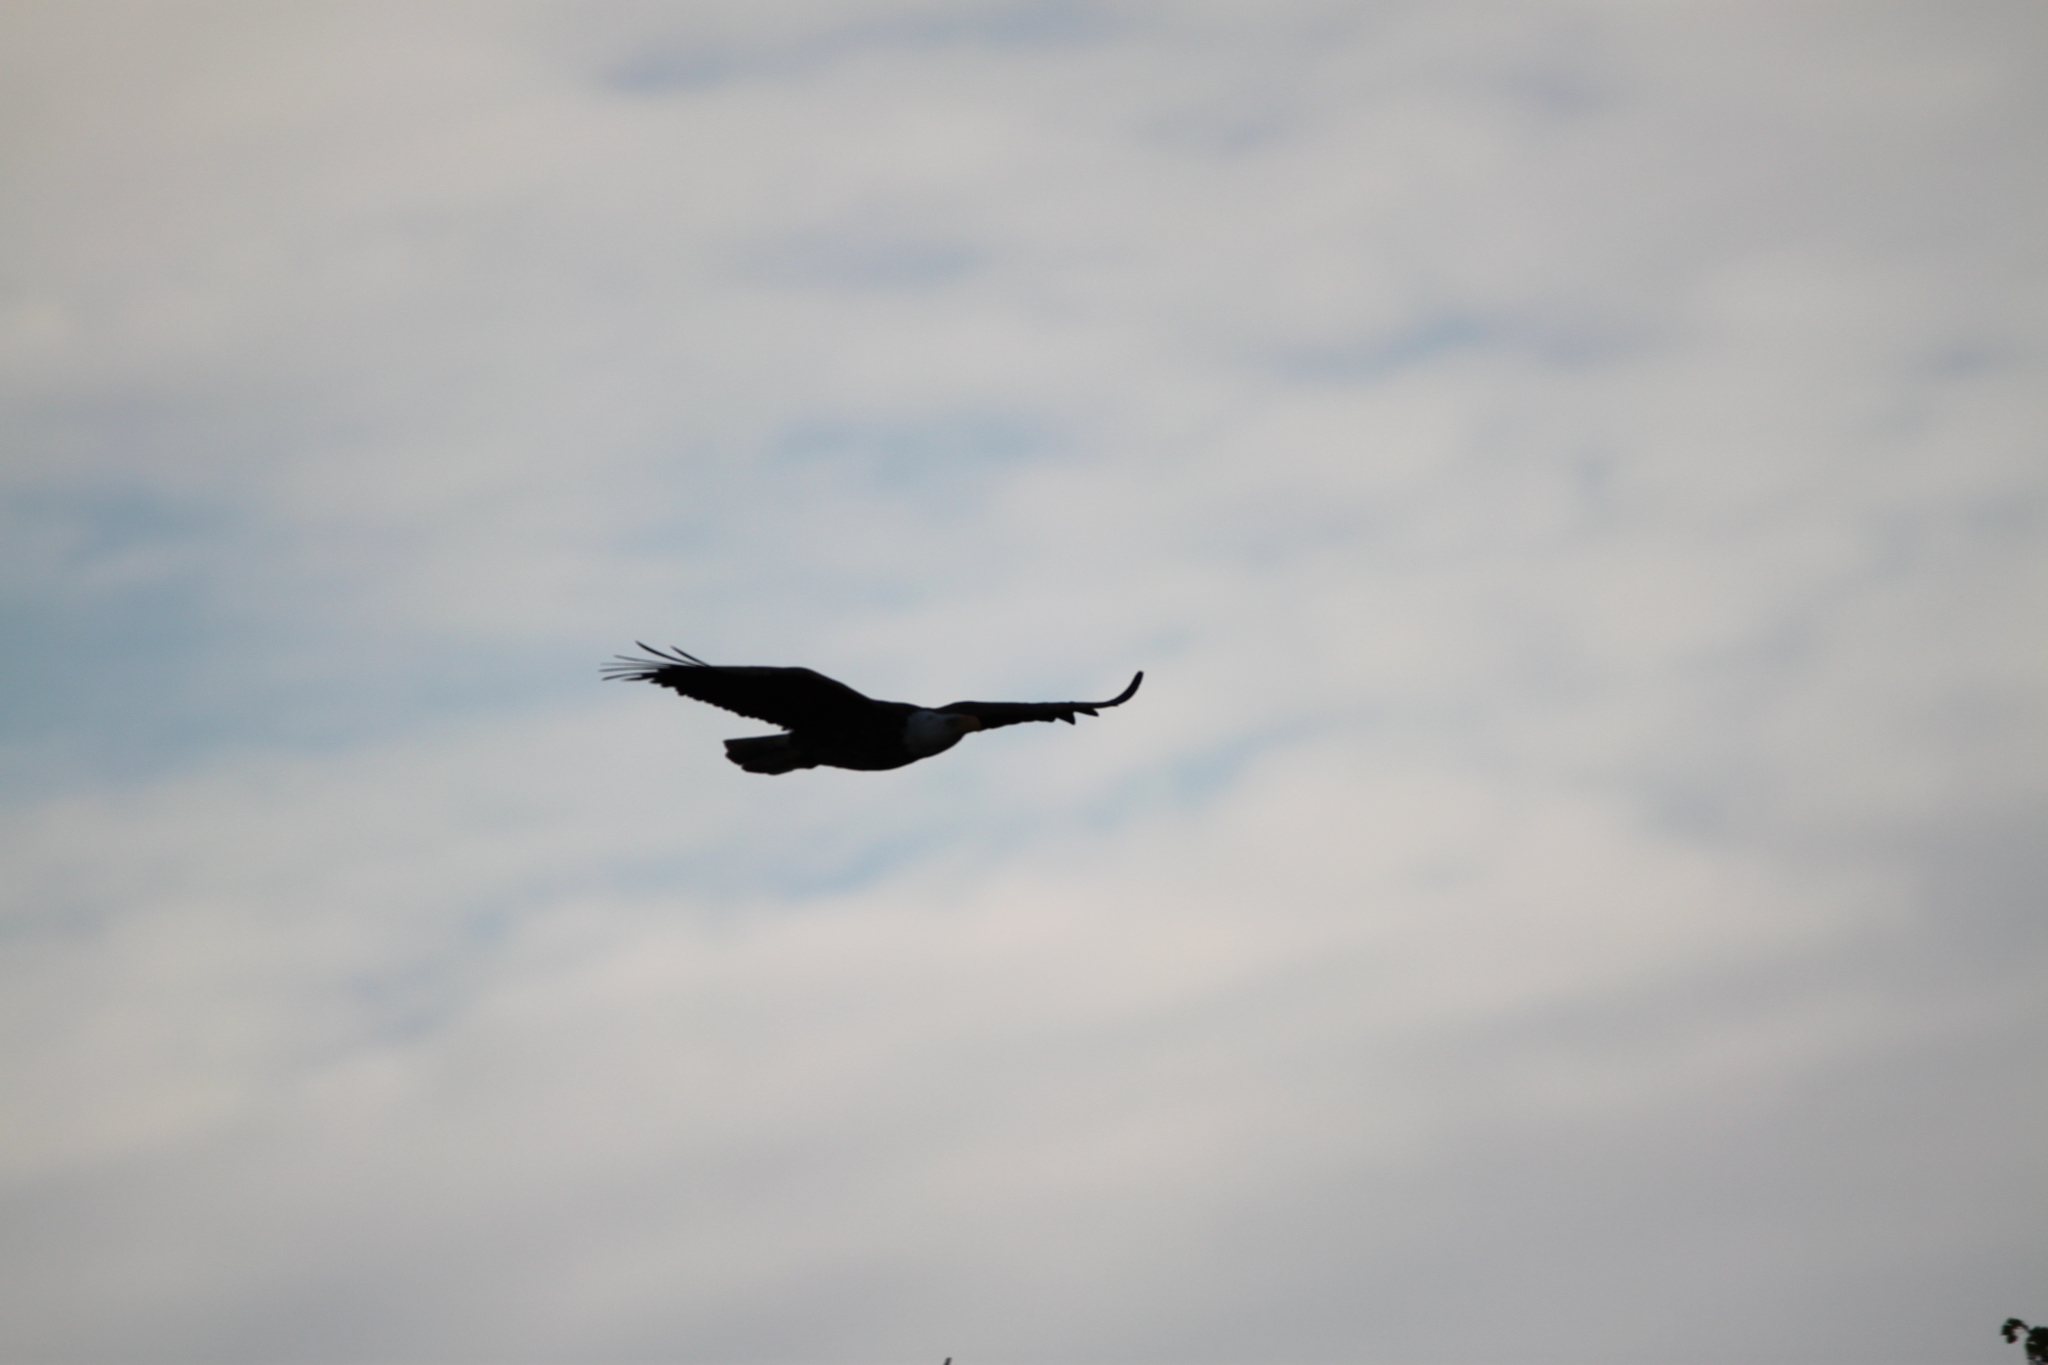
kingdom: Animalia
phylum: Chordata
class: Aves
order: Accipitriformes
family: Accipitridae
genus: Haliaeetus
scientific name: Haliaeetus leucocephalus
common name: Bald eagle
